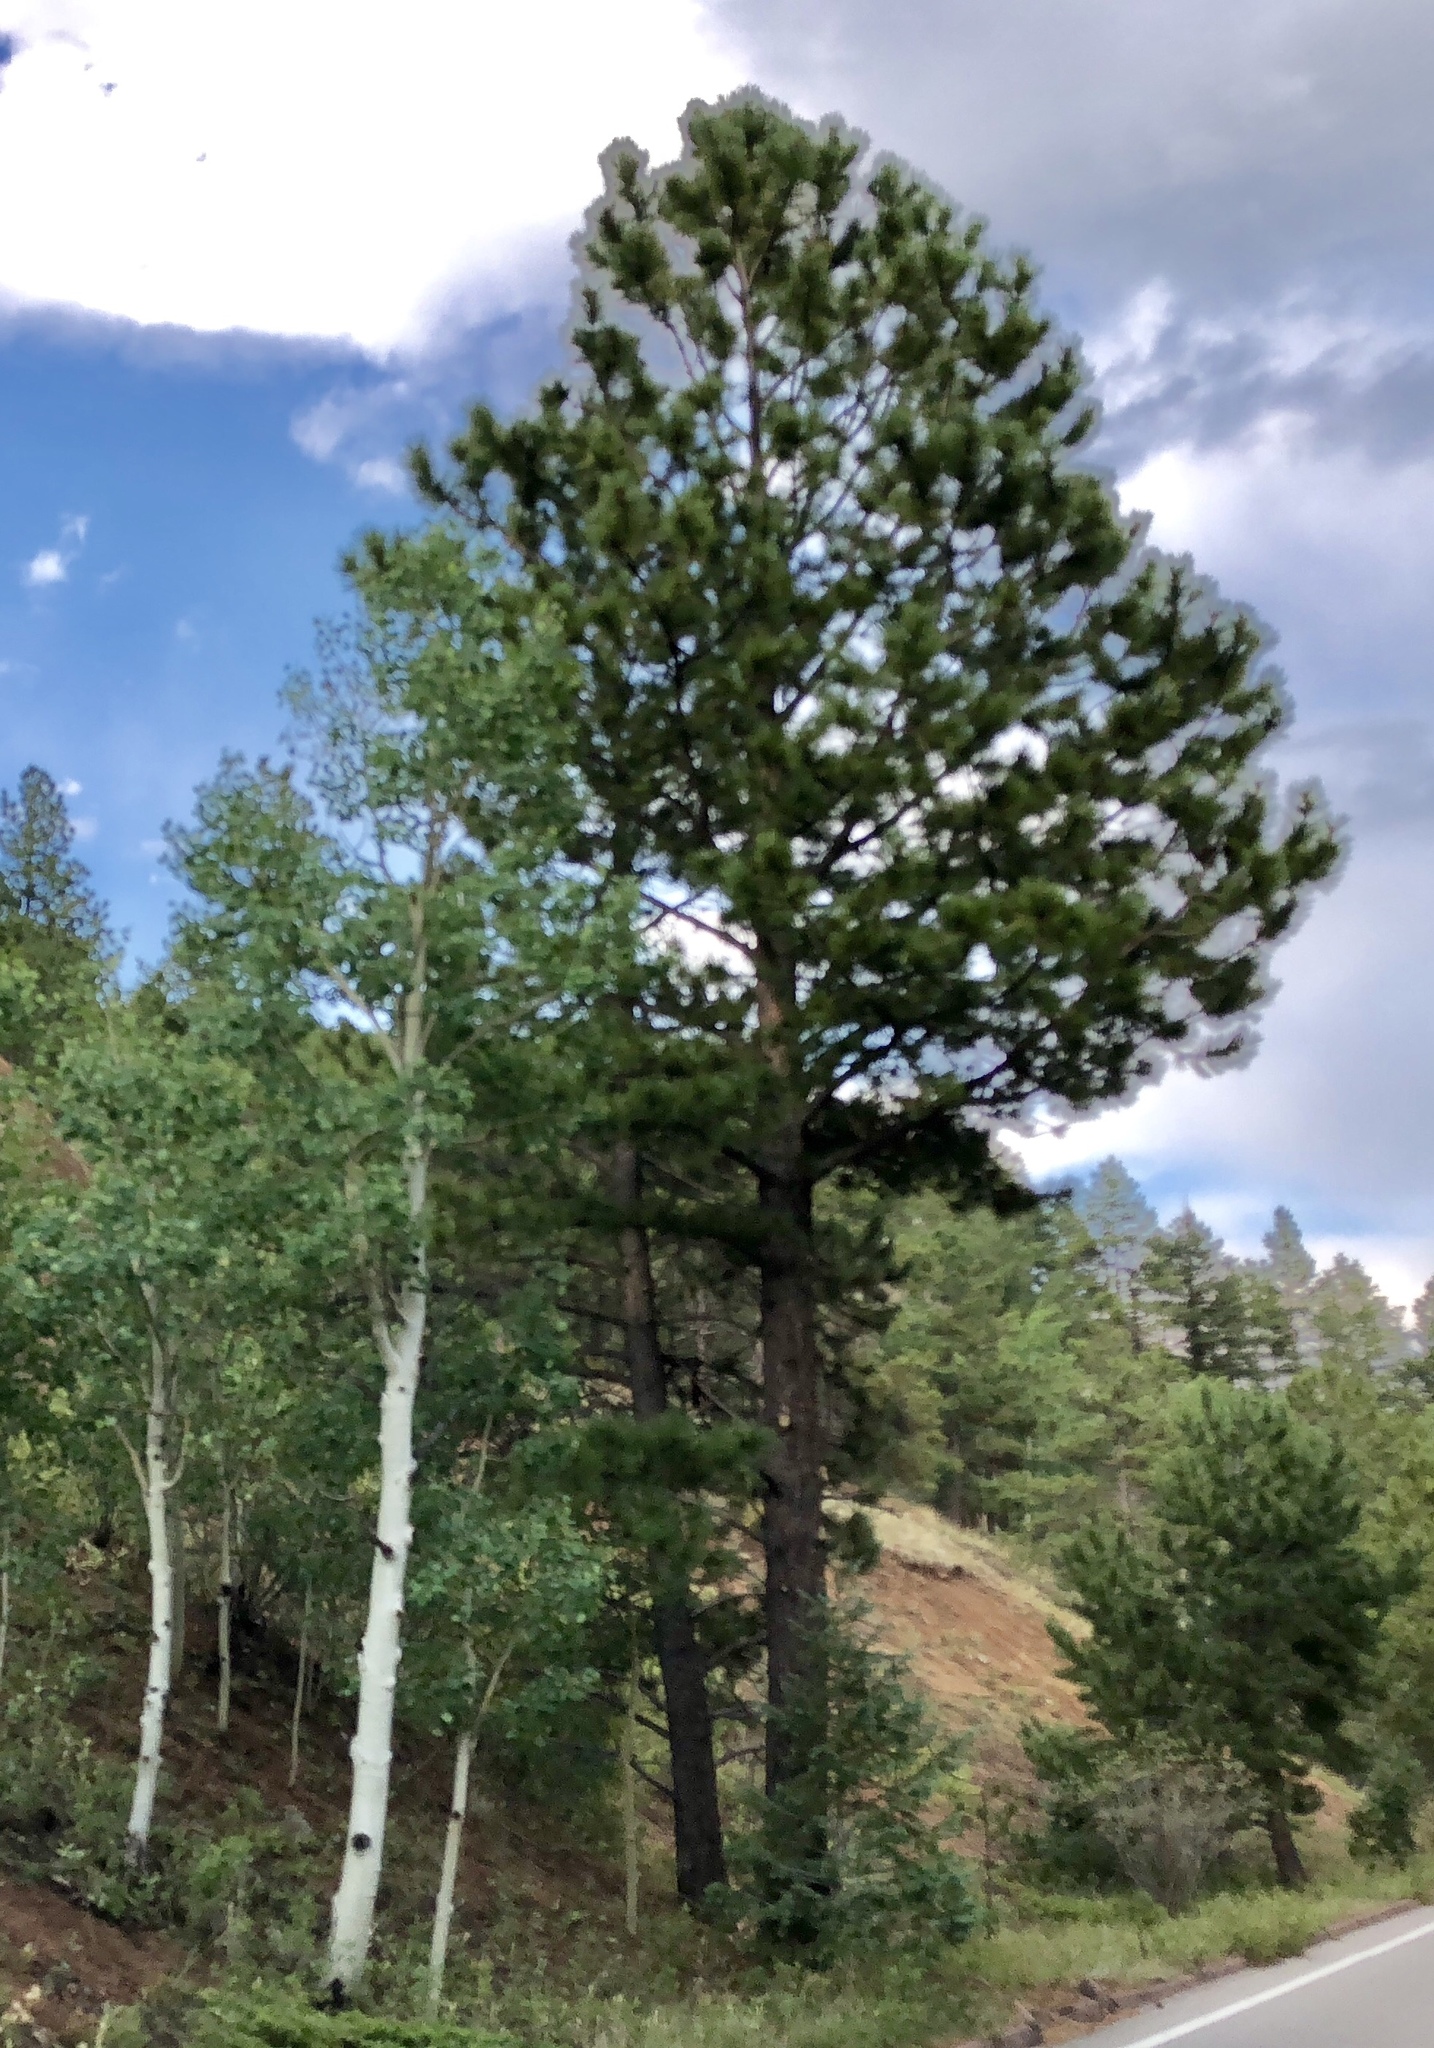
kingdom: Plantae
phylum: Tracheophyta
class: Pinopsida
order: Pinales
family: Pinaceae
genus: Pinus
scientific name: Pinus ponderosa
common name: Western yellow-pine
